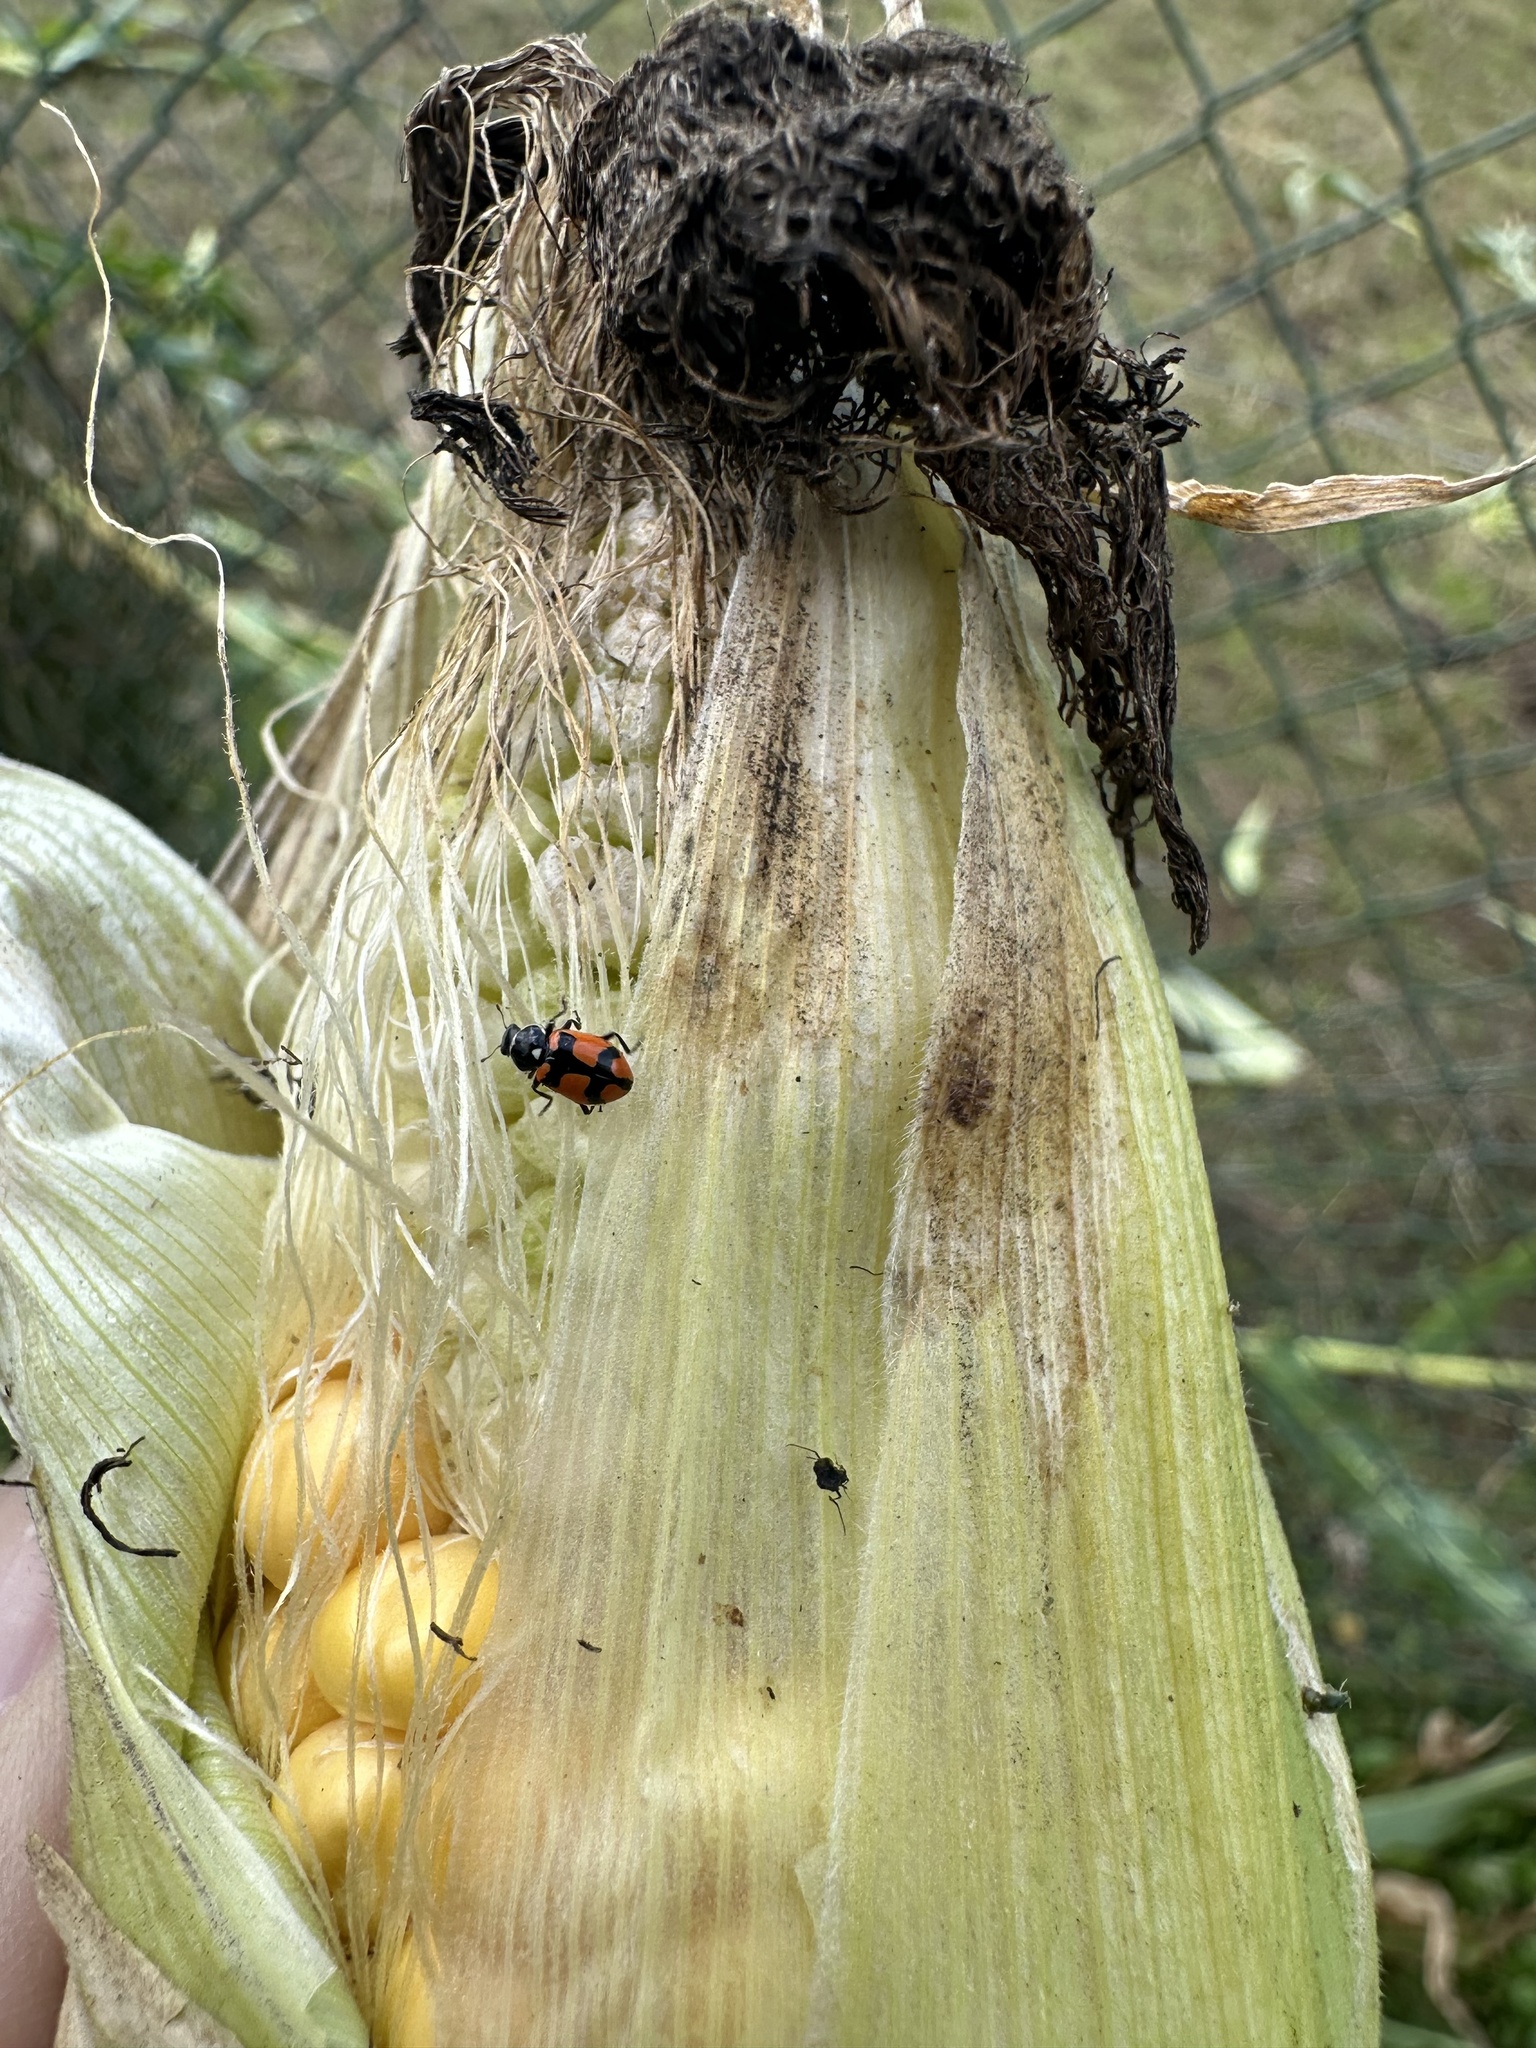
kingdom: Animalia
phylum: Arthropoda
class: Insecta
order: Coleoptera
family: Coccinellidae
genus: Eriopis
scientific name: Eriopis eschscholtzii
